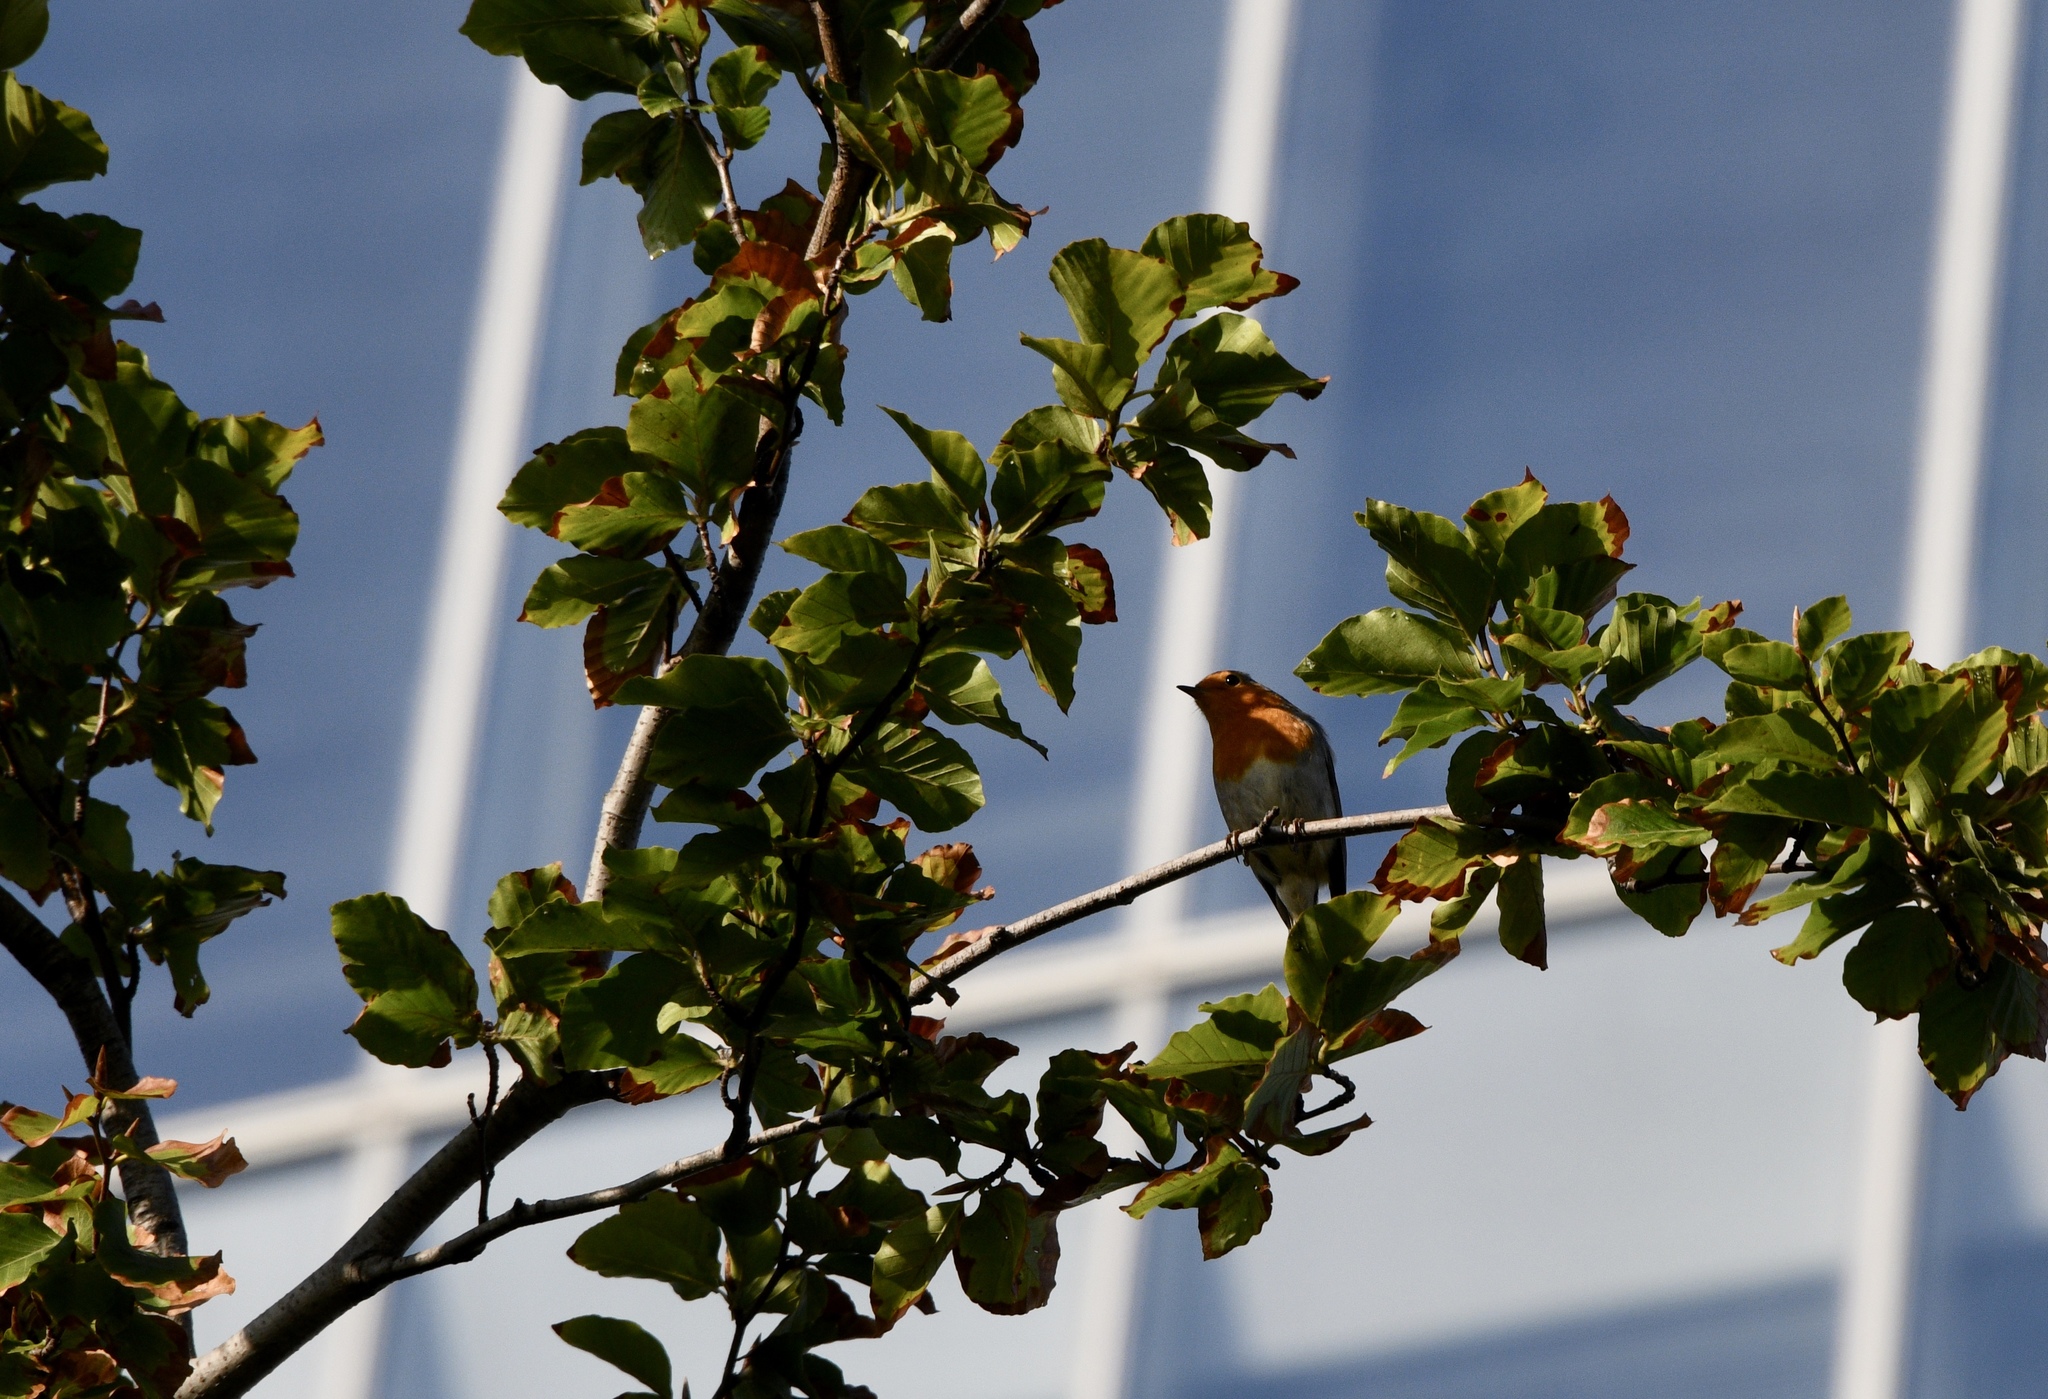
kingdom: Animalia
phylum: Chordata
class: Aves
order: Passeriformes
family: Muscicapidae
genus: Erithacus
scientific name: Erithacus rubecula
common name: European robin
